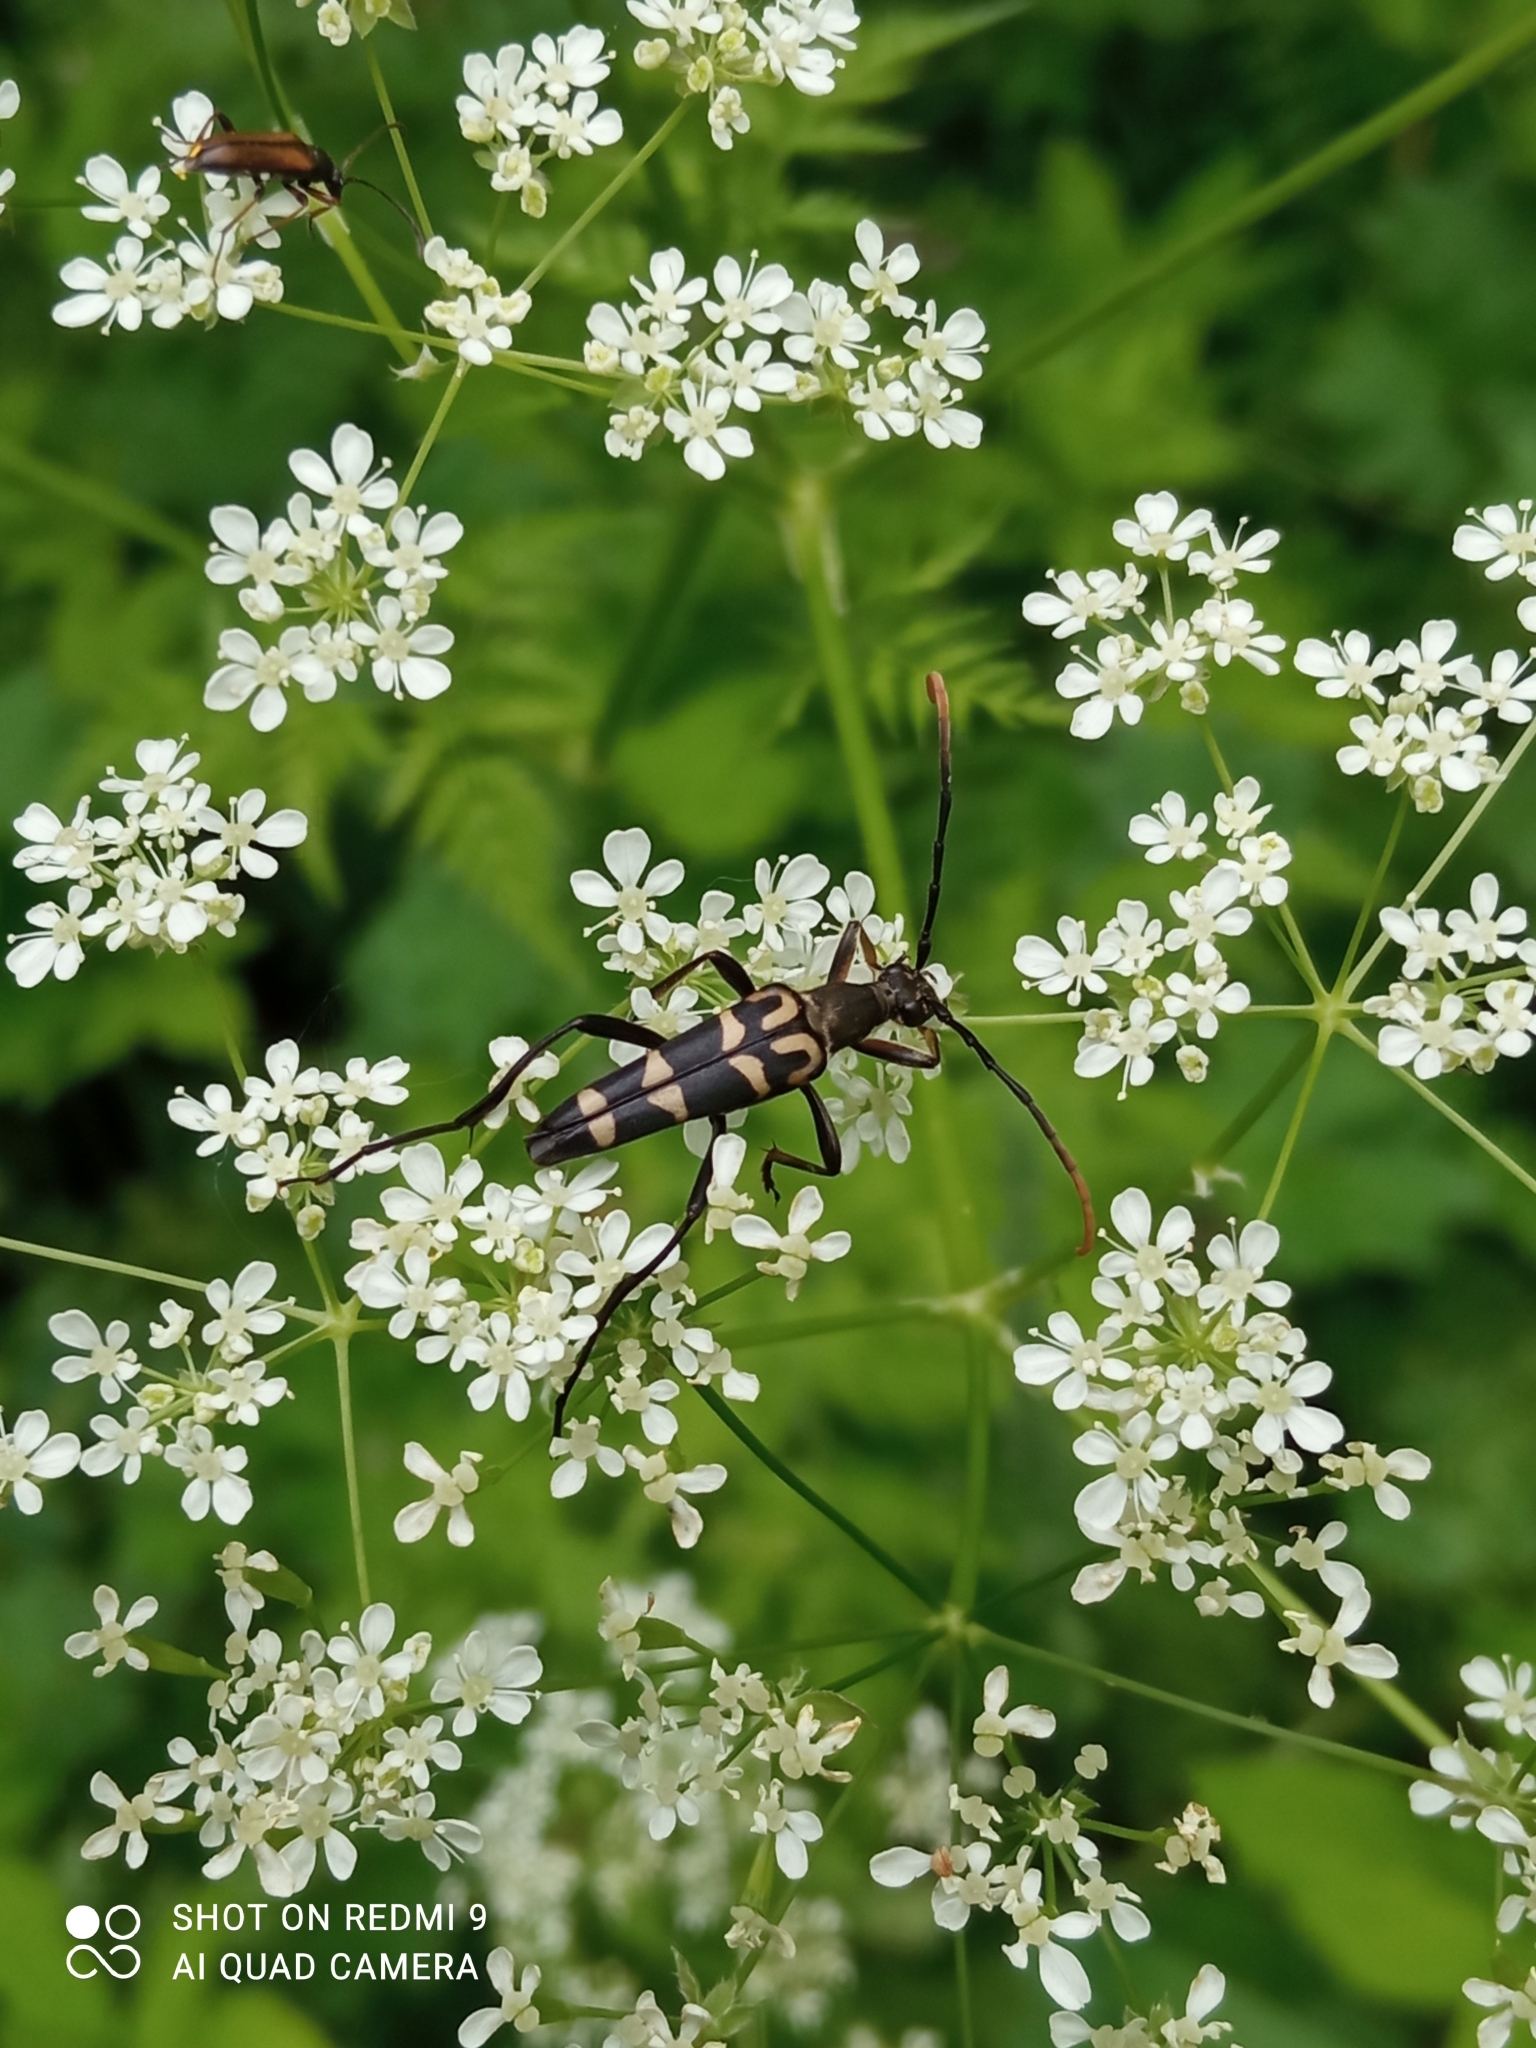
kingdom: Animalia
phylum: Arthropoda
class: Insecta
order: Coleoptera
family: Cerambycidae
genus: Leptura
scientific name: Leptura annularis
